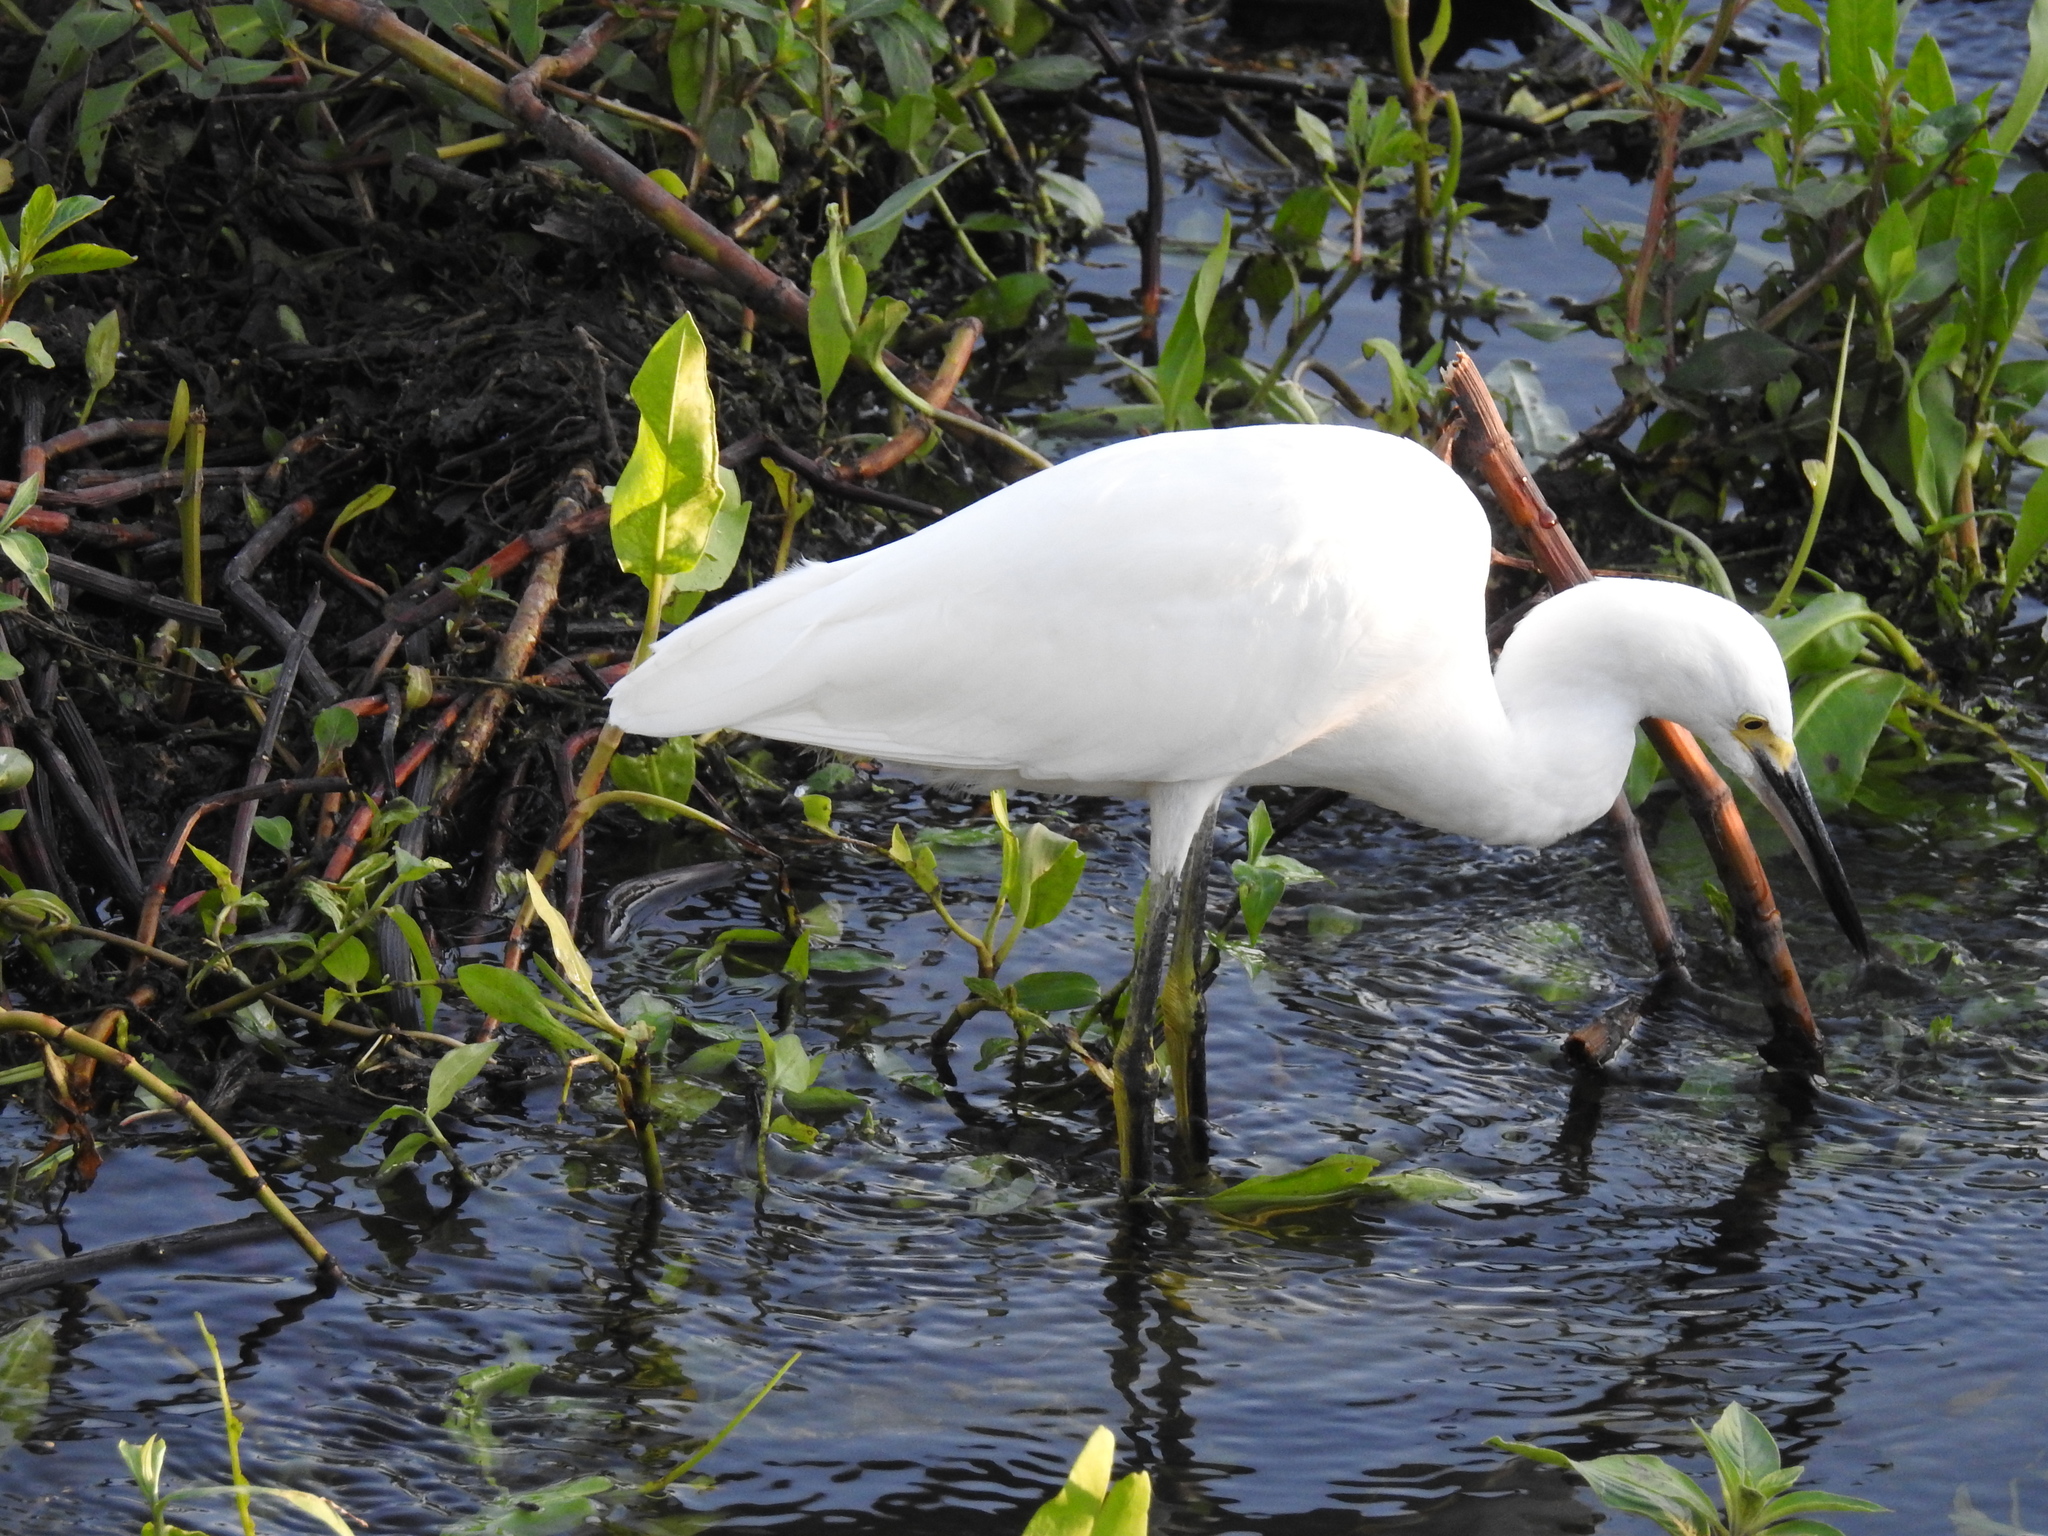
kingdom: Animalia
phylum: Chordata
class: Aves
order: Pelecaniformes
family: Ardeidae
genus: Egretta
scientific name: Egretta thula
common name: Snowy egret
